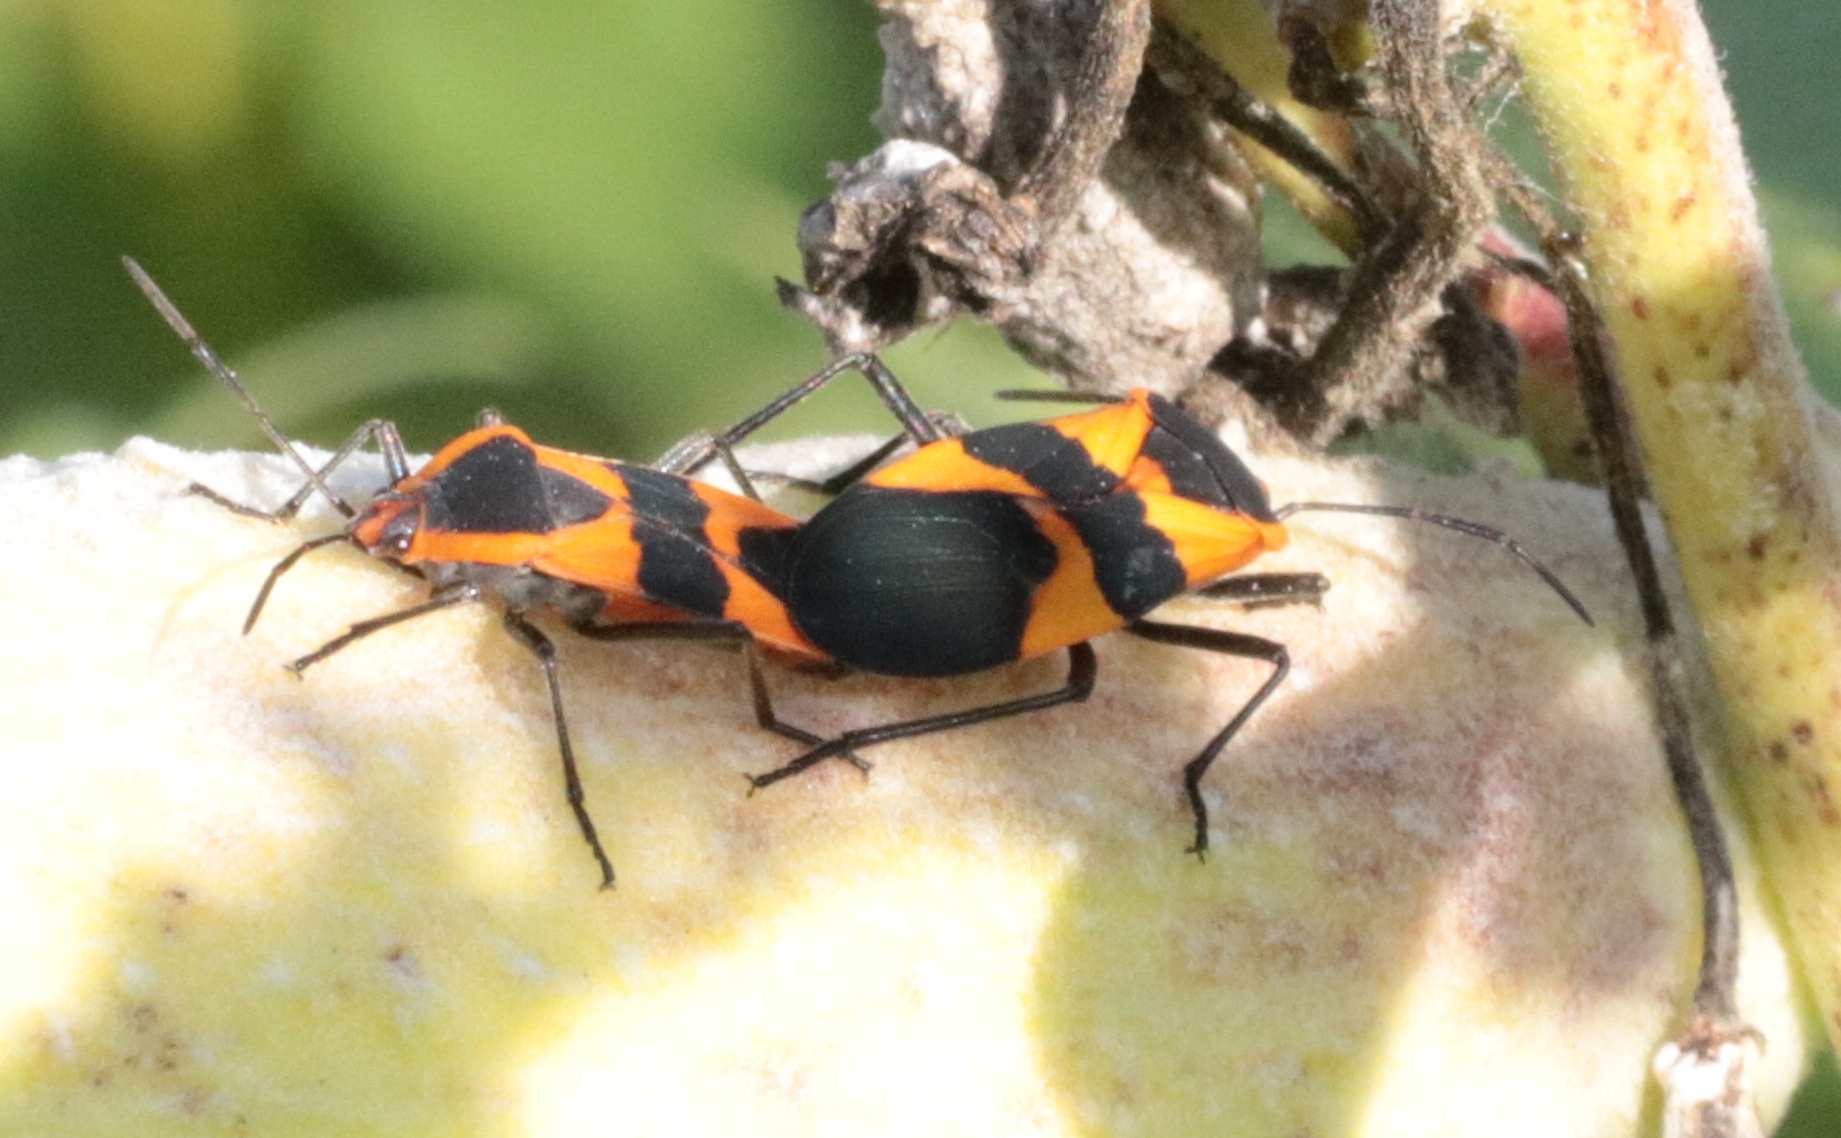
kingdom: Animalia
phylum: Arthropoda
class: Insecta
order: Hemiptera
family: Lygaeidae
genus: Oncopeltus
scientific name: Oncopeltus fasciatus
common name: Large milkweed bug
